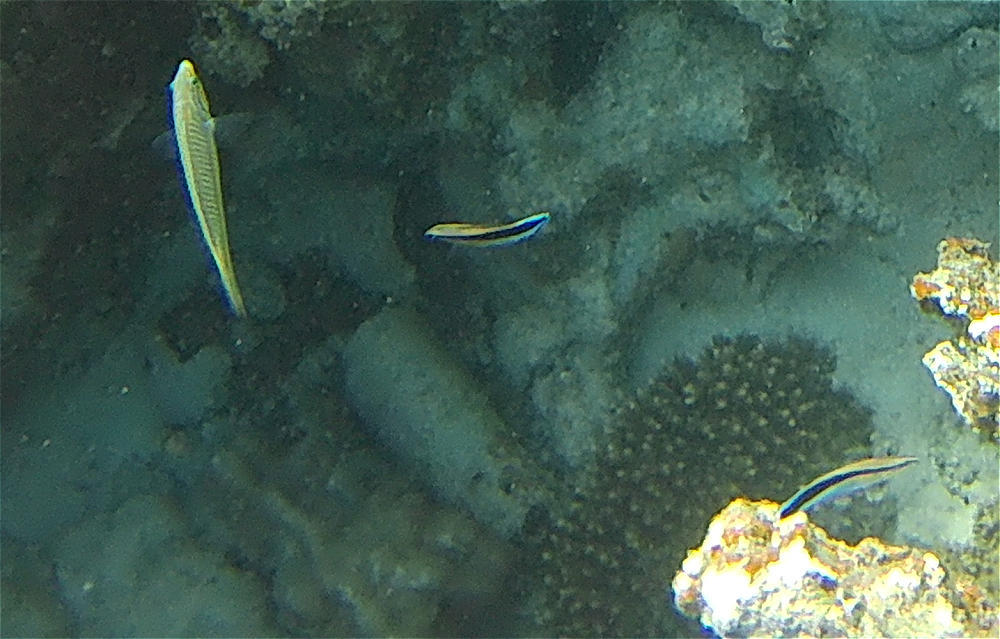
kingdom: Animalia
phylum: Chordata
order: Perciformes
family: Labridae
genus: Labroides
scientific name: Labroides dimidiatus
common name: Blue diesel wrasse
